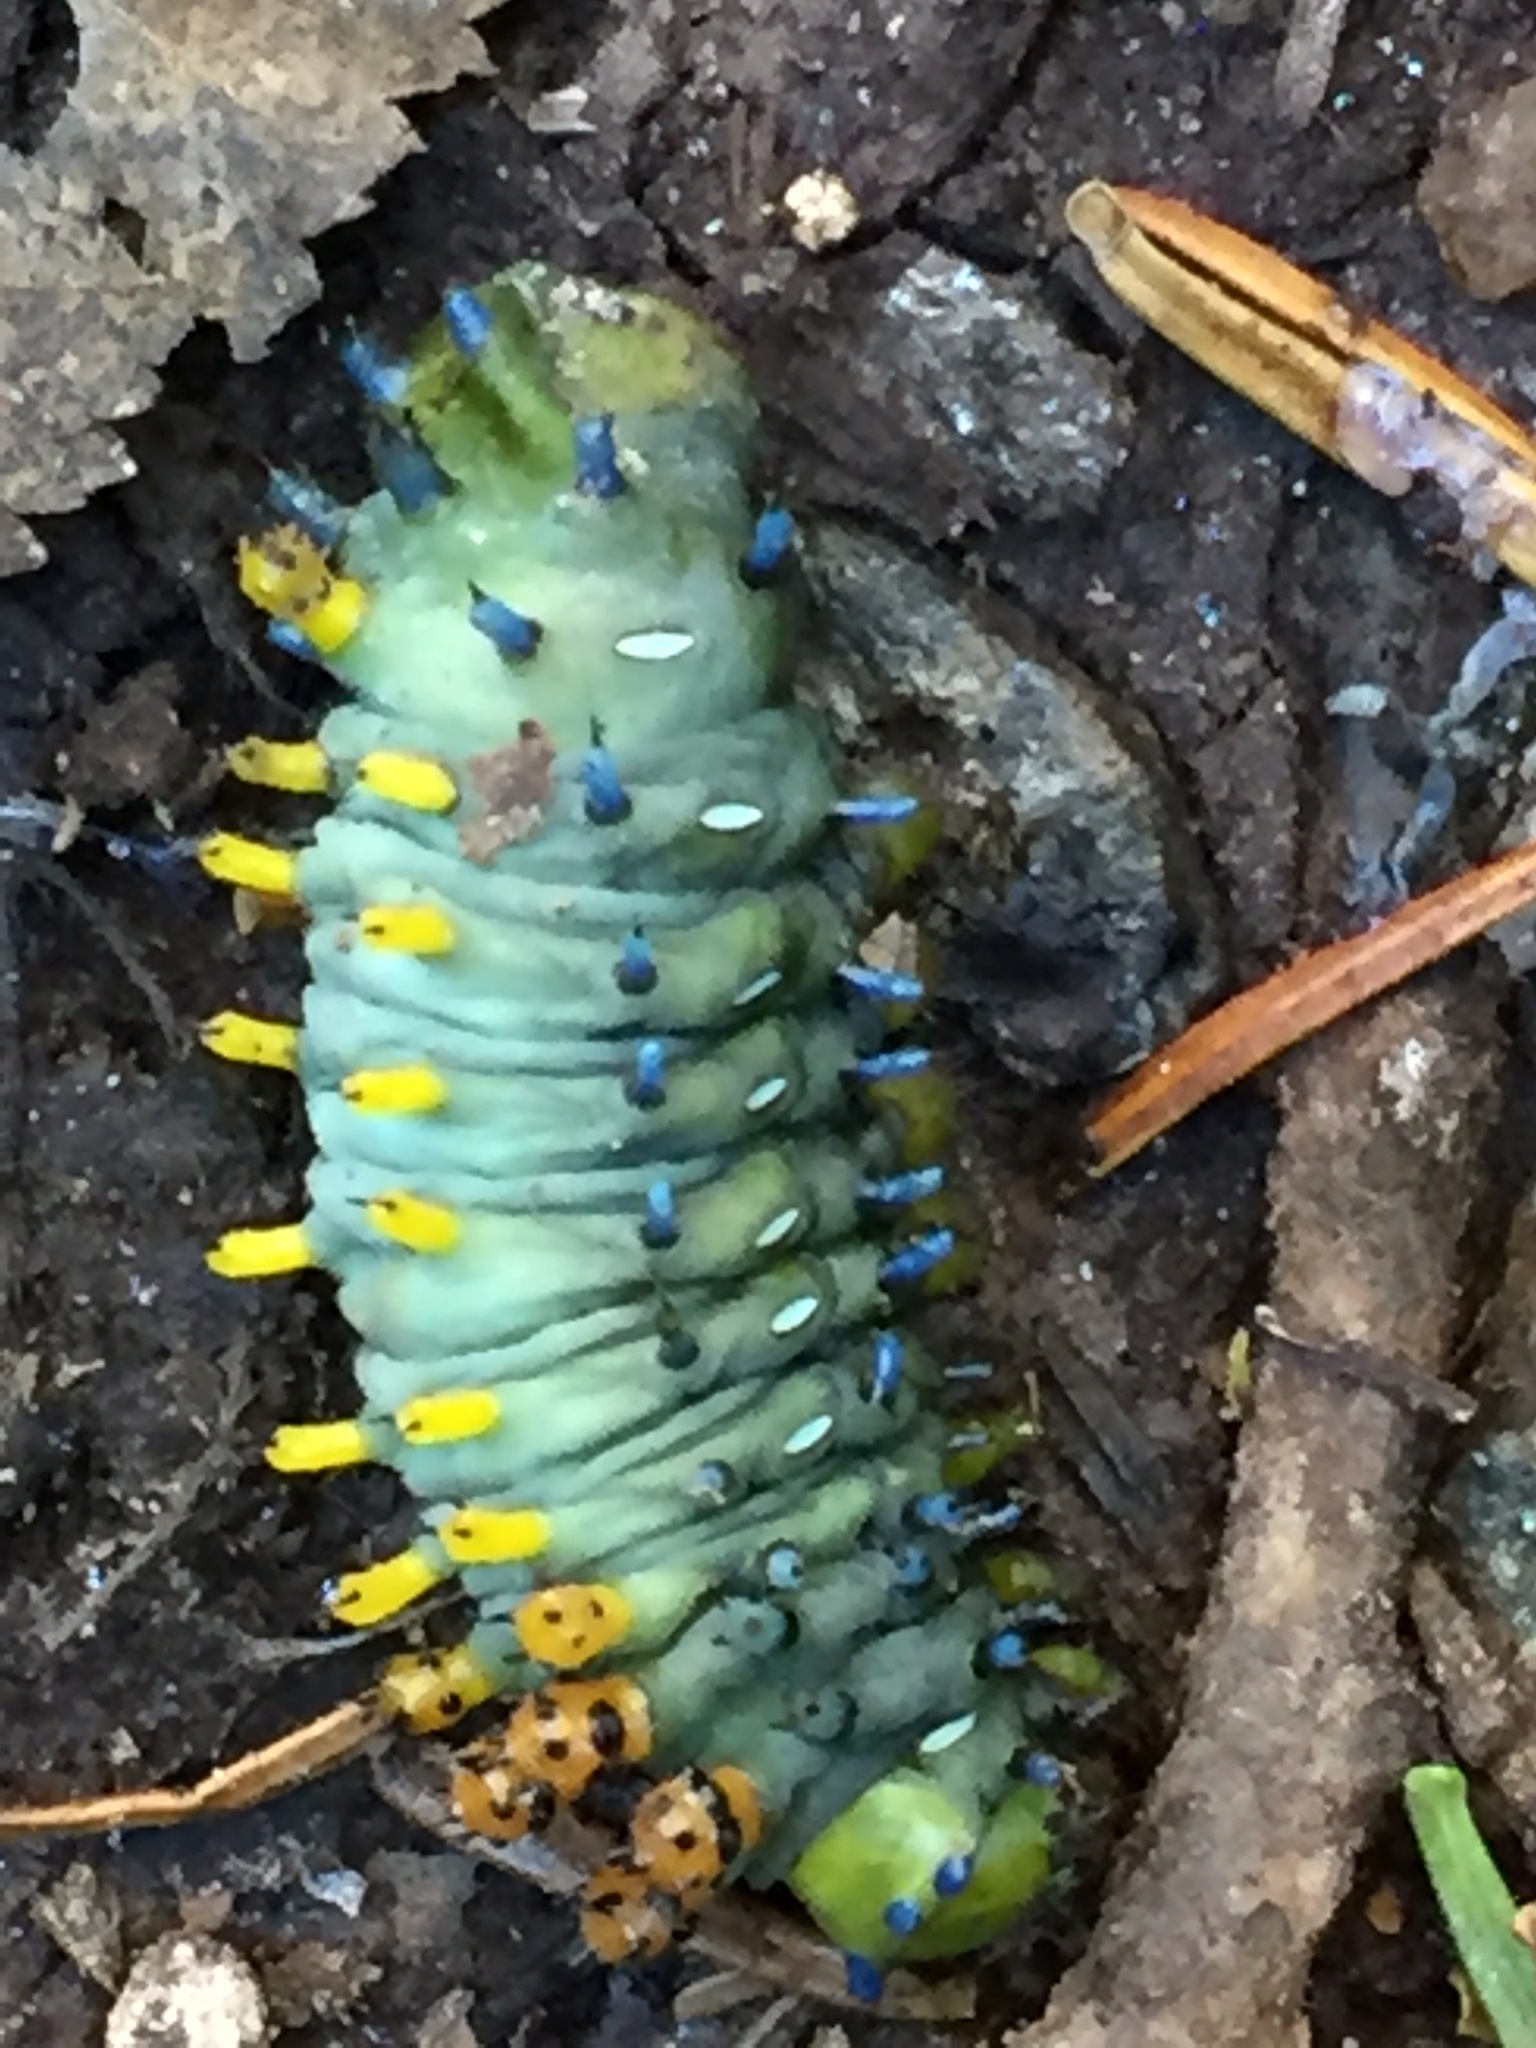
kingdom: Animalia
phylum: Arthropoda
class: Insecta
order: Lepidoptera
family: Saturniidae
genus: Hyalophora
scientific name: Hyalophora cecropia
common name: Cecropia silkmoth
